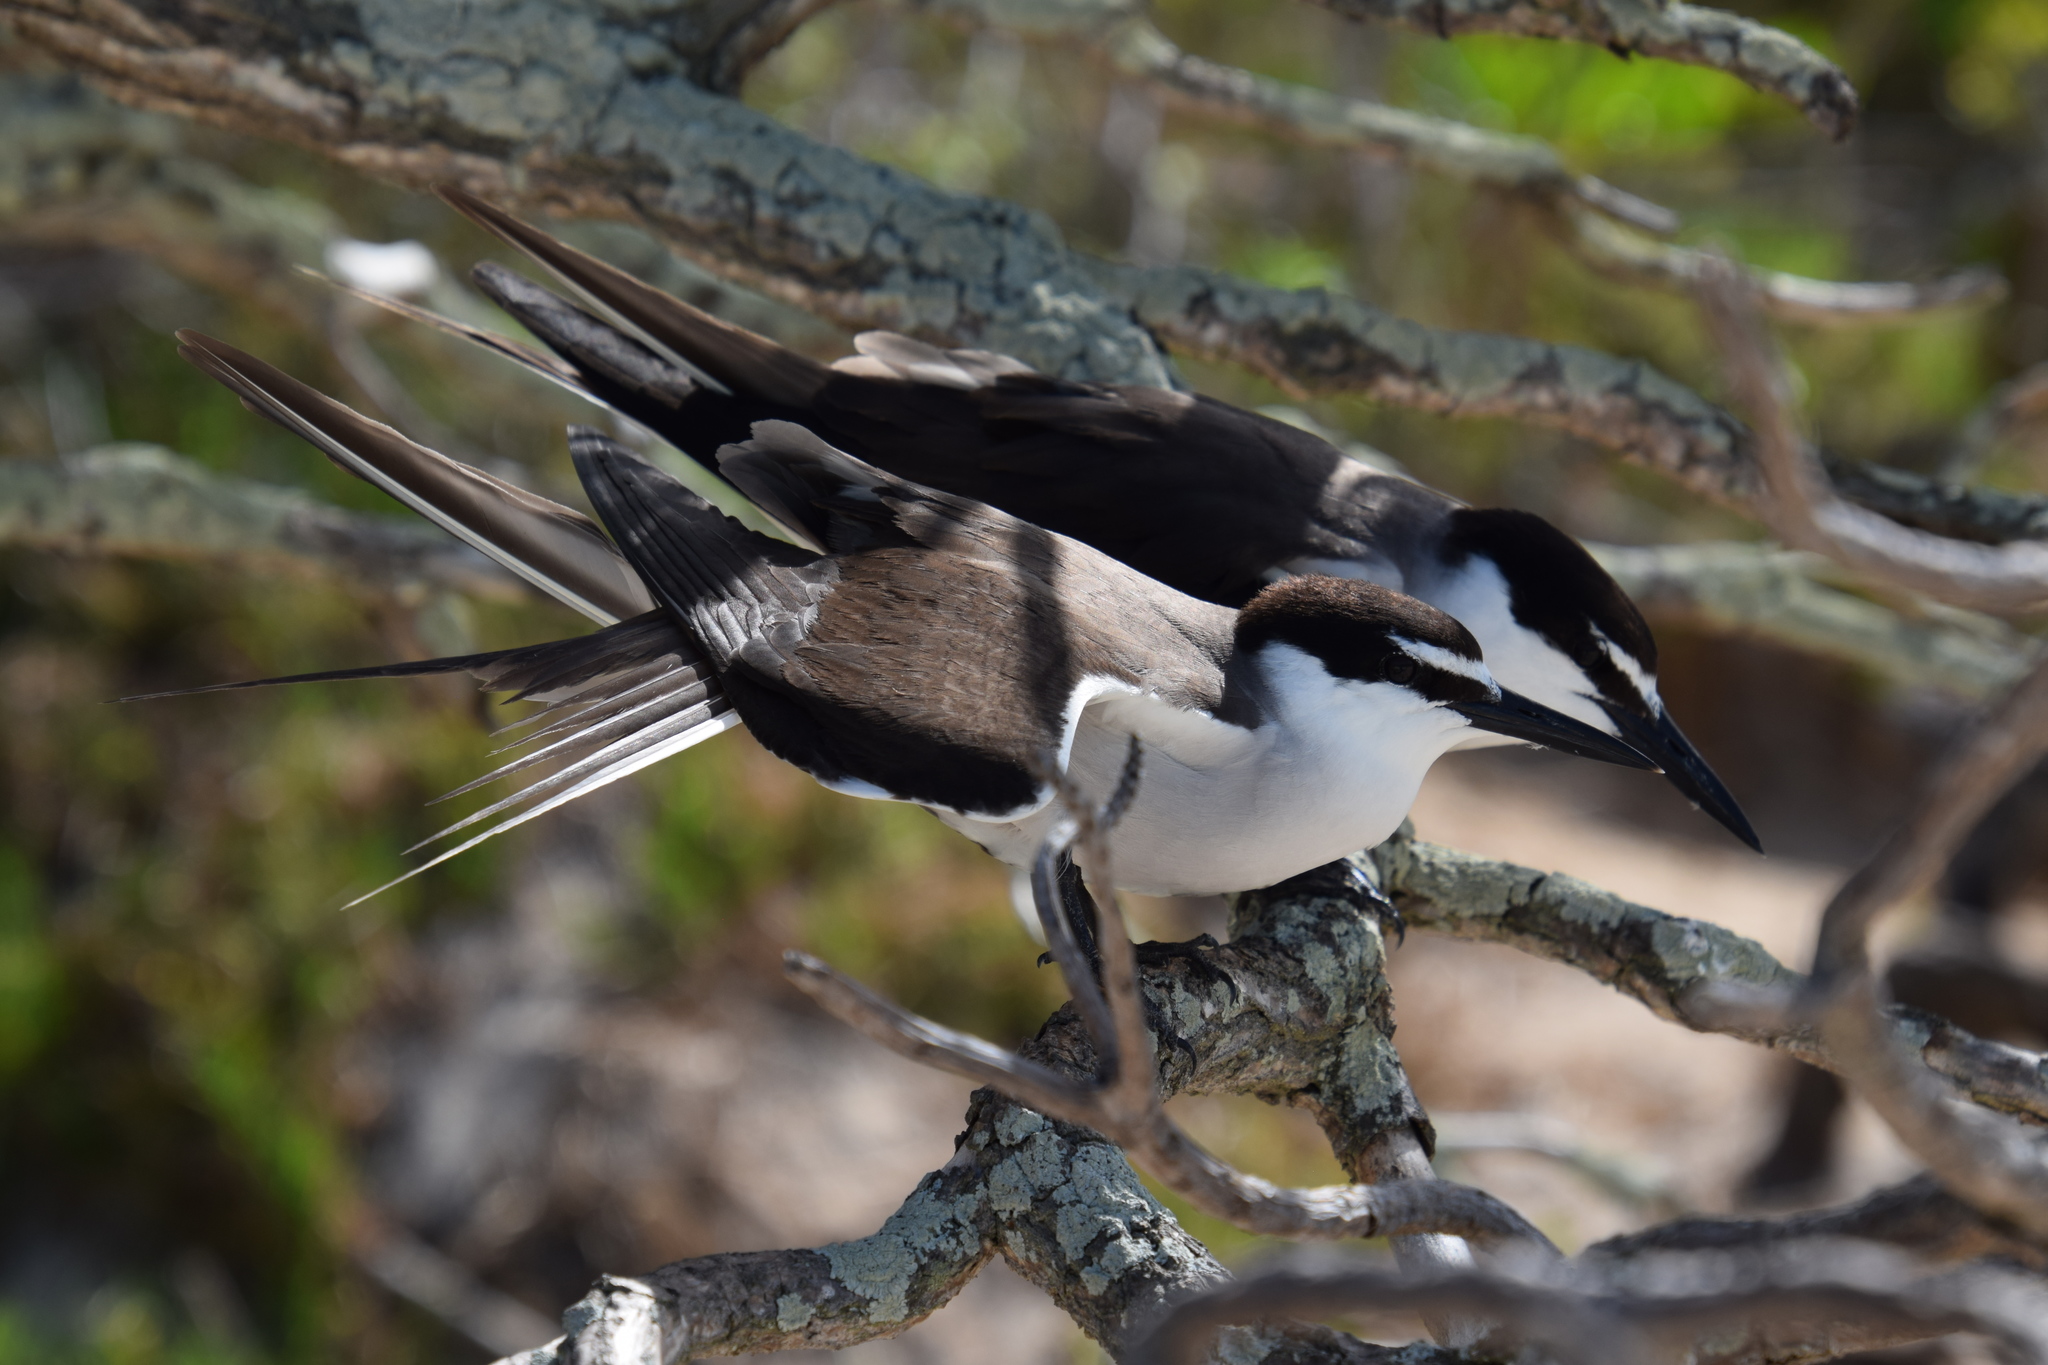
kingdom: Animalia
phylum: Chordata
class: Aves
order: Charadriiformes
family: Laridae
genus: Onychoprion
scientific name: Onychoprion anaethetus
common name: Bridled tern
